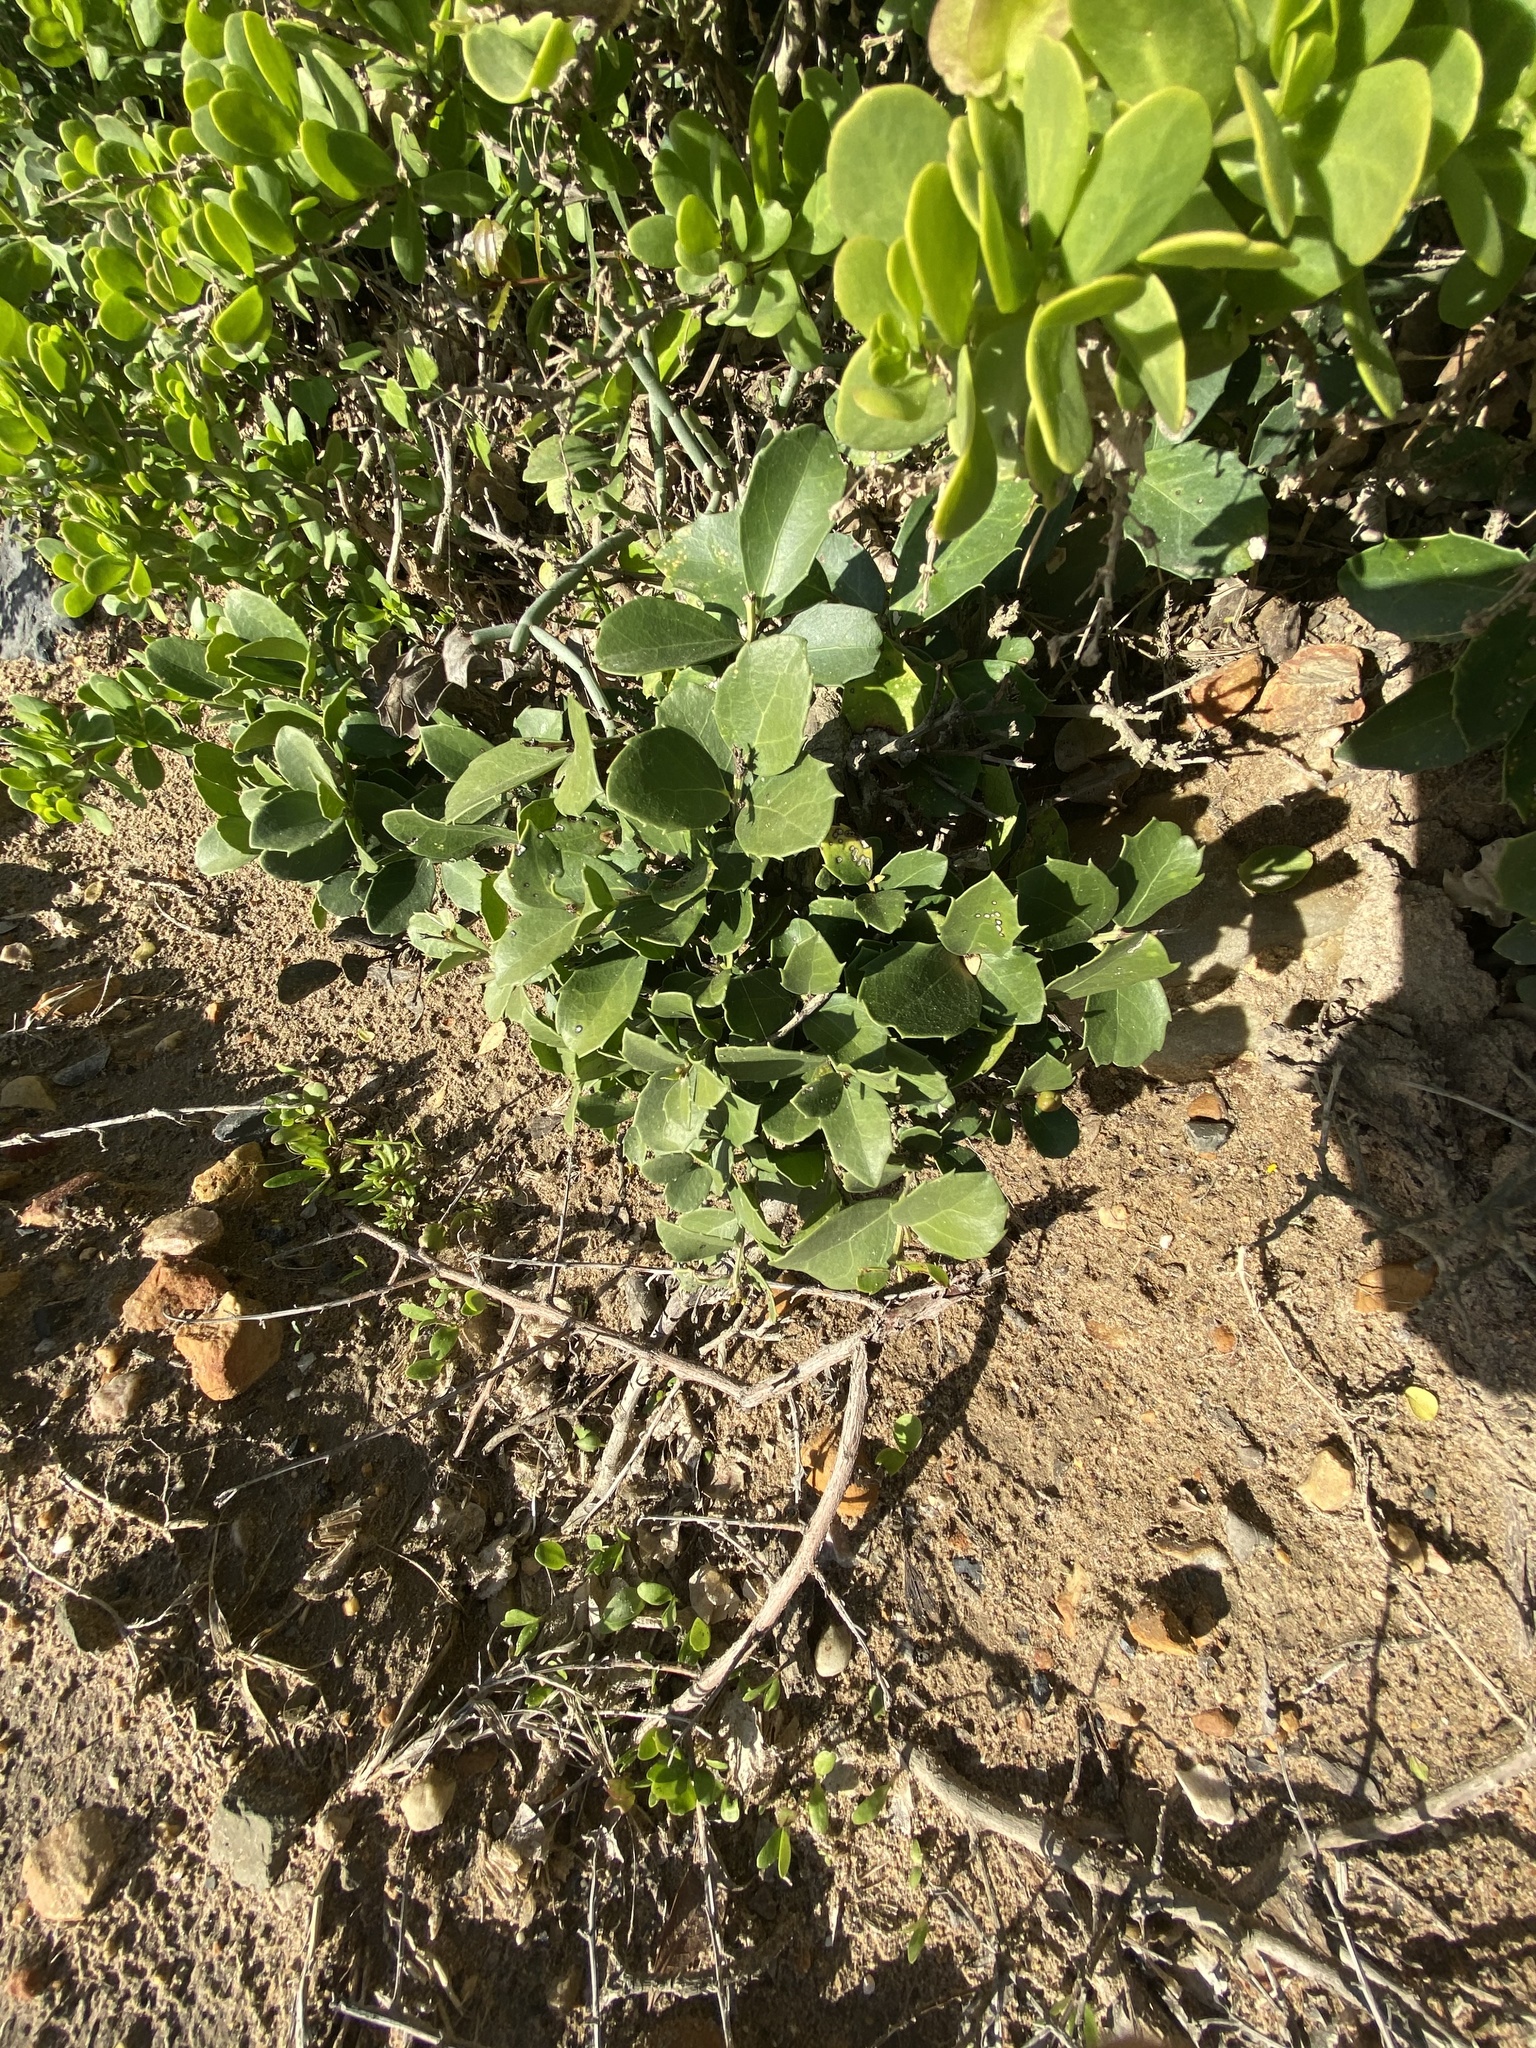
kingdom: Plantae
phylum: Tracheophyta
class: Magnoliopsida
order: Celastrales
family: Celastraceae
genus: Gymnosporia
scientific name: Gymnosporia procumbens
